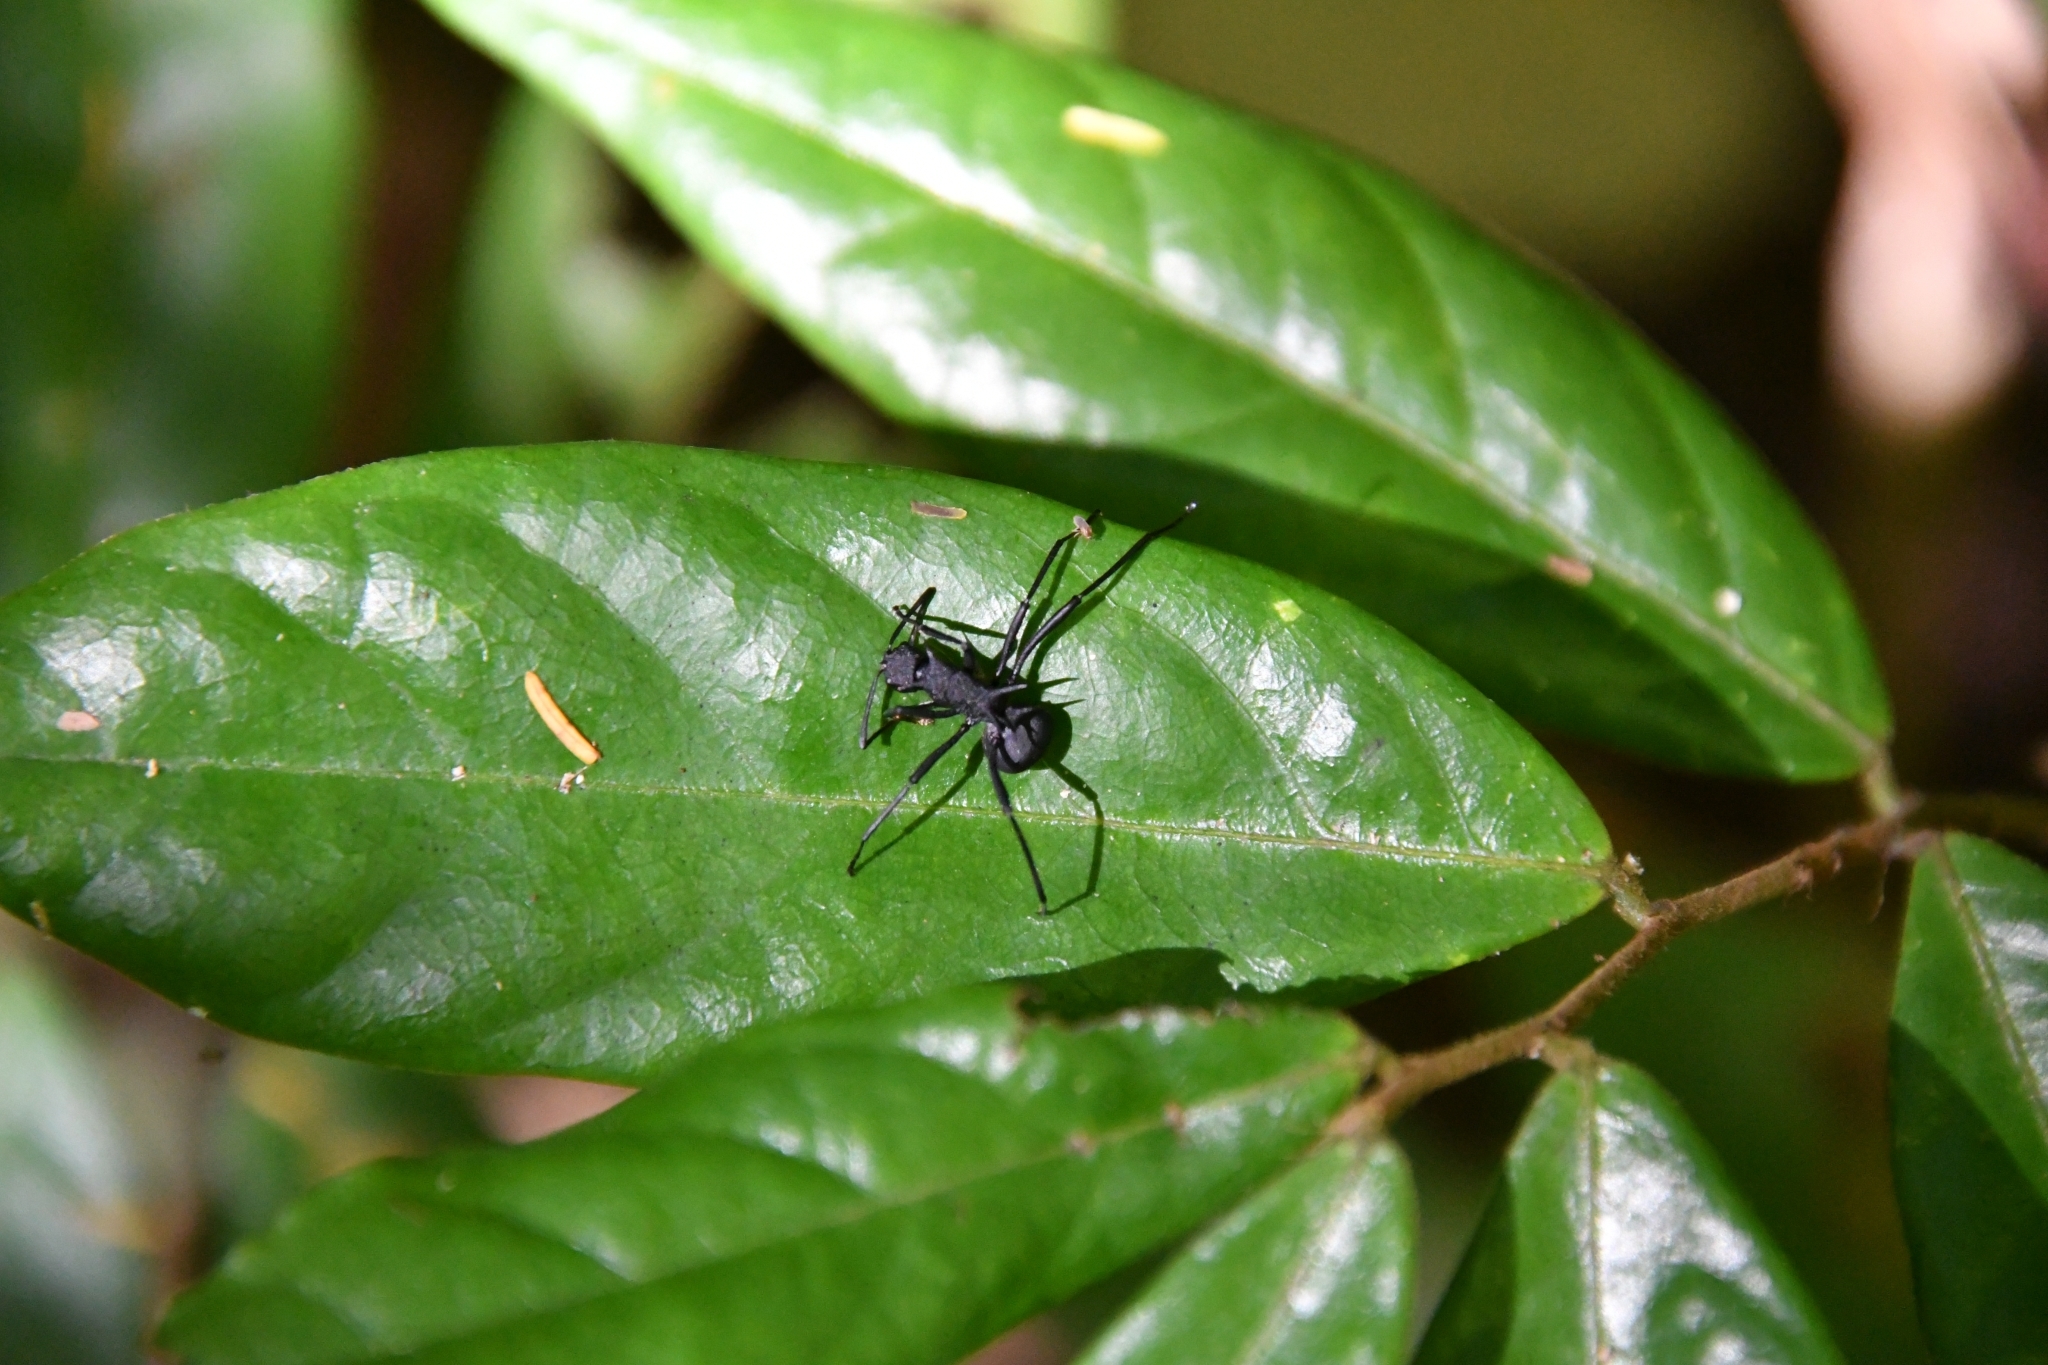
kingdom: Animalia
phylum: Arthropoda
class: Insecta
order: Hymenoptera
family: Formicidae
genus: Polyrhachis
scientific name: Polyrhachis armata
